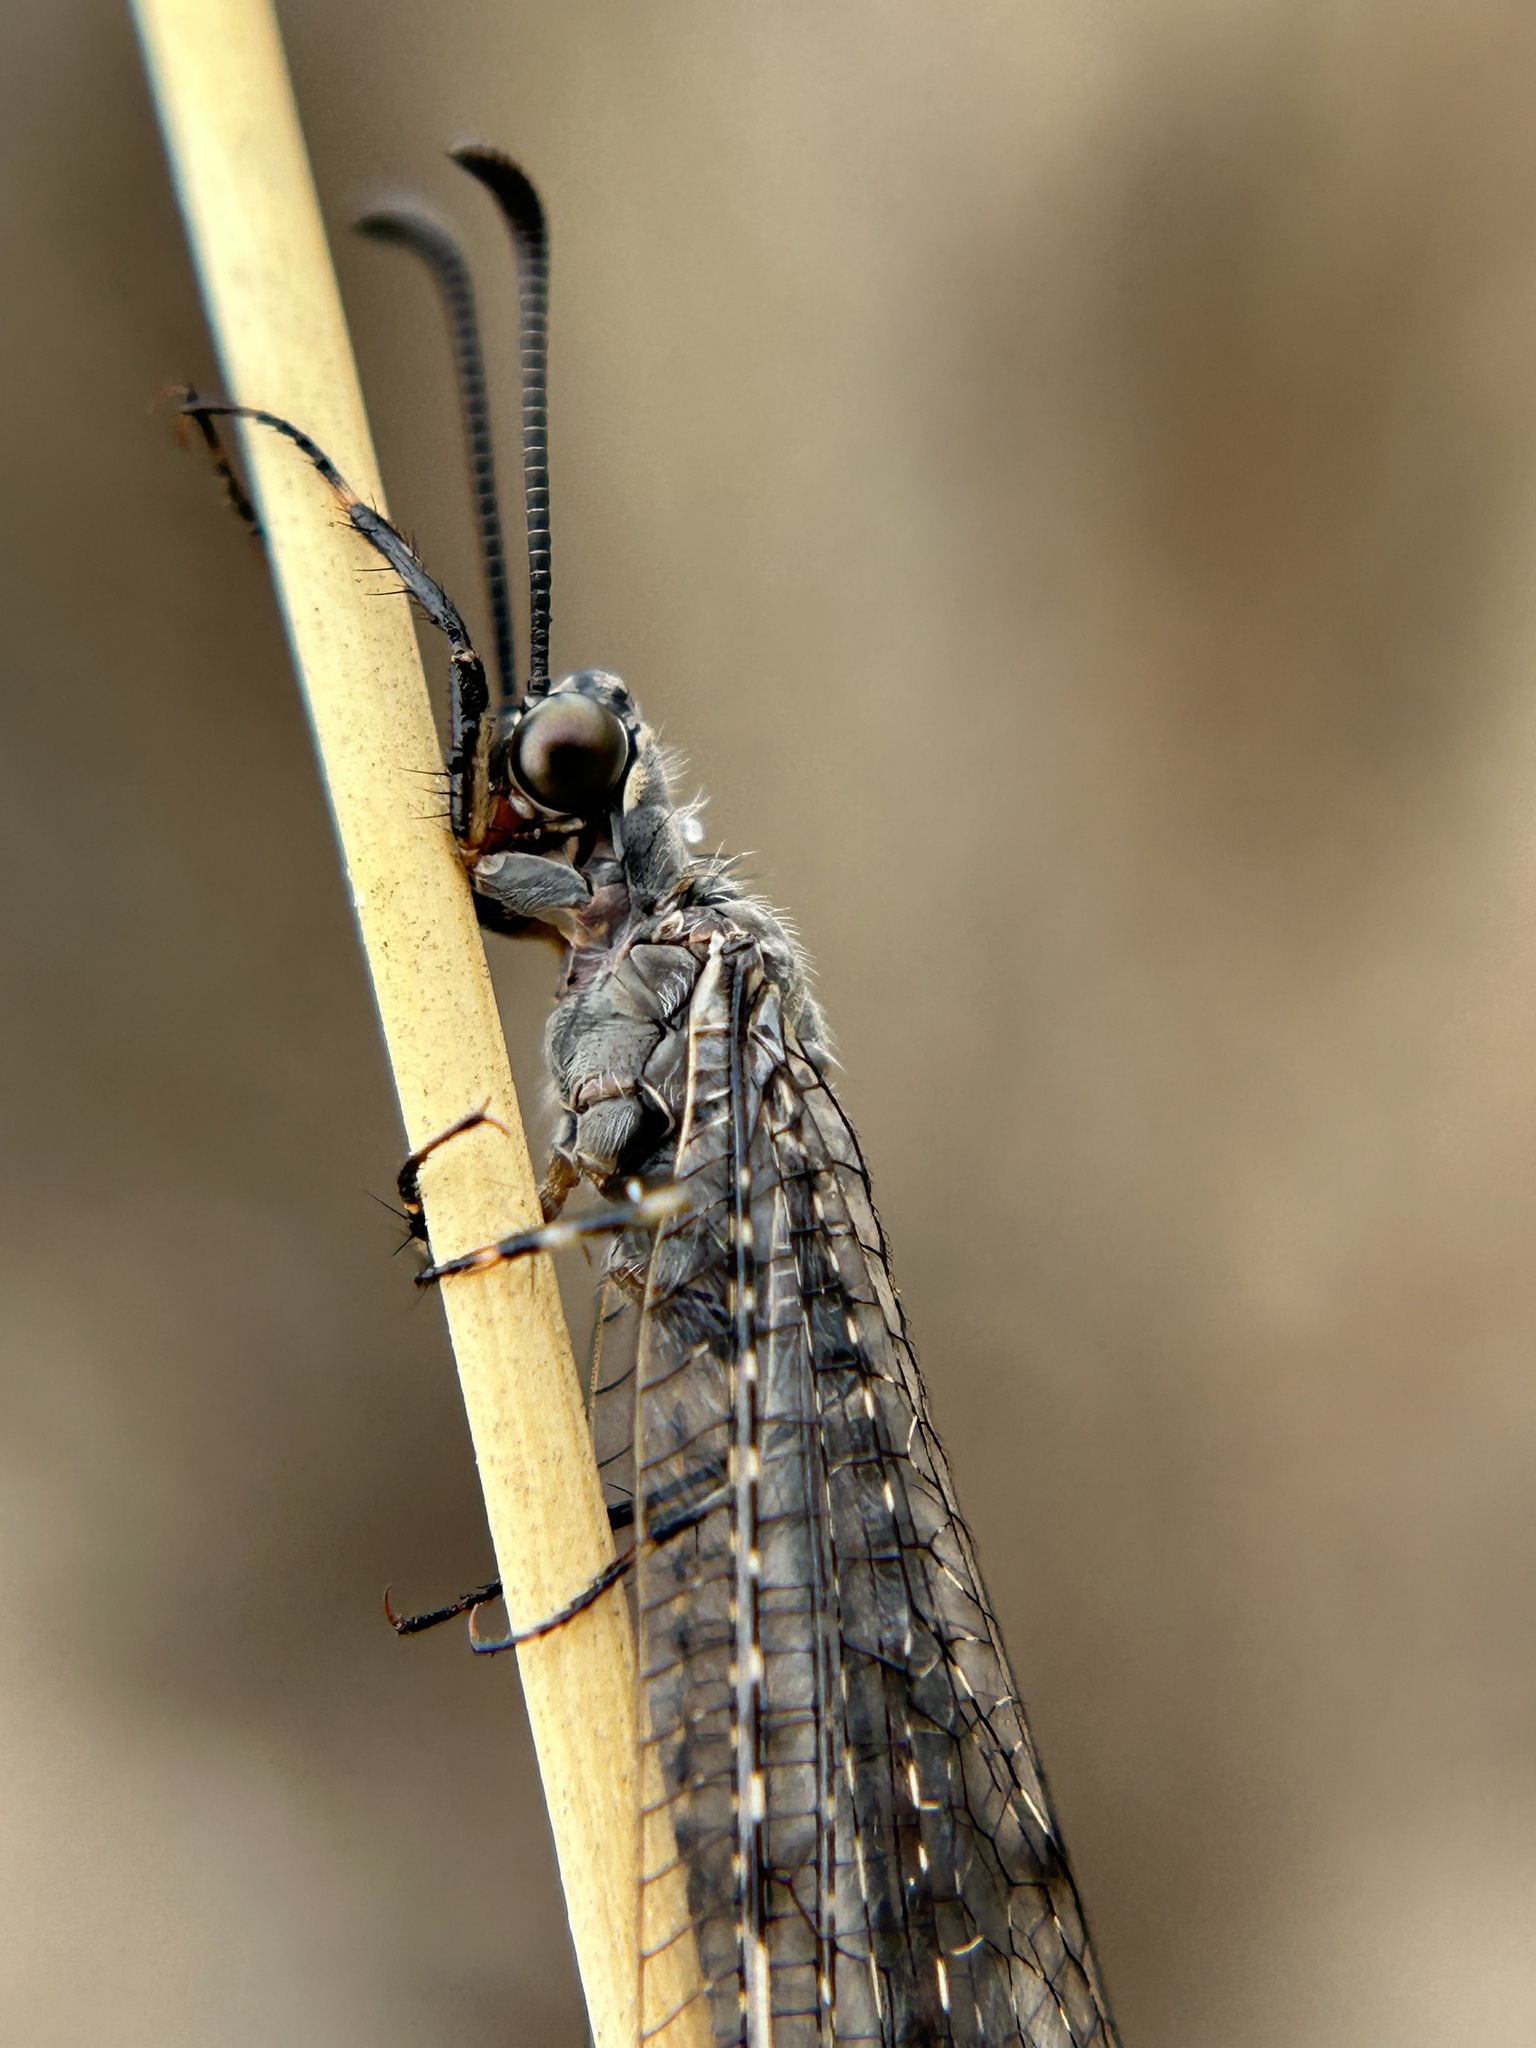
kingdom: Animalia
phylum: Arthropoda
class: Insecta
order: Neuroptera
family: Myrmeleontidae
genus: Myrmeleon
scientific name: Myrmeleon exitialis
